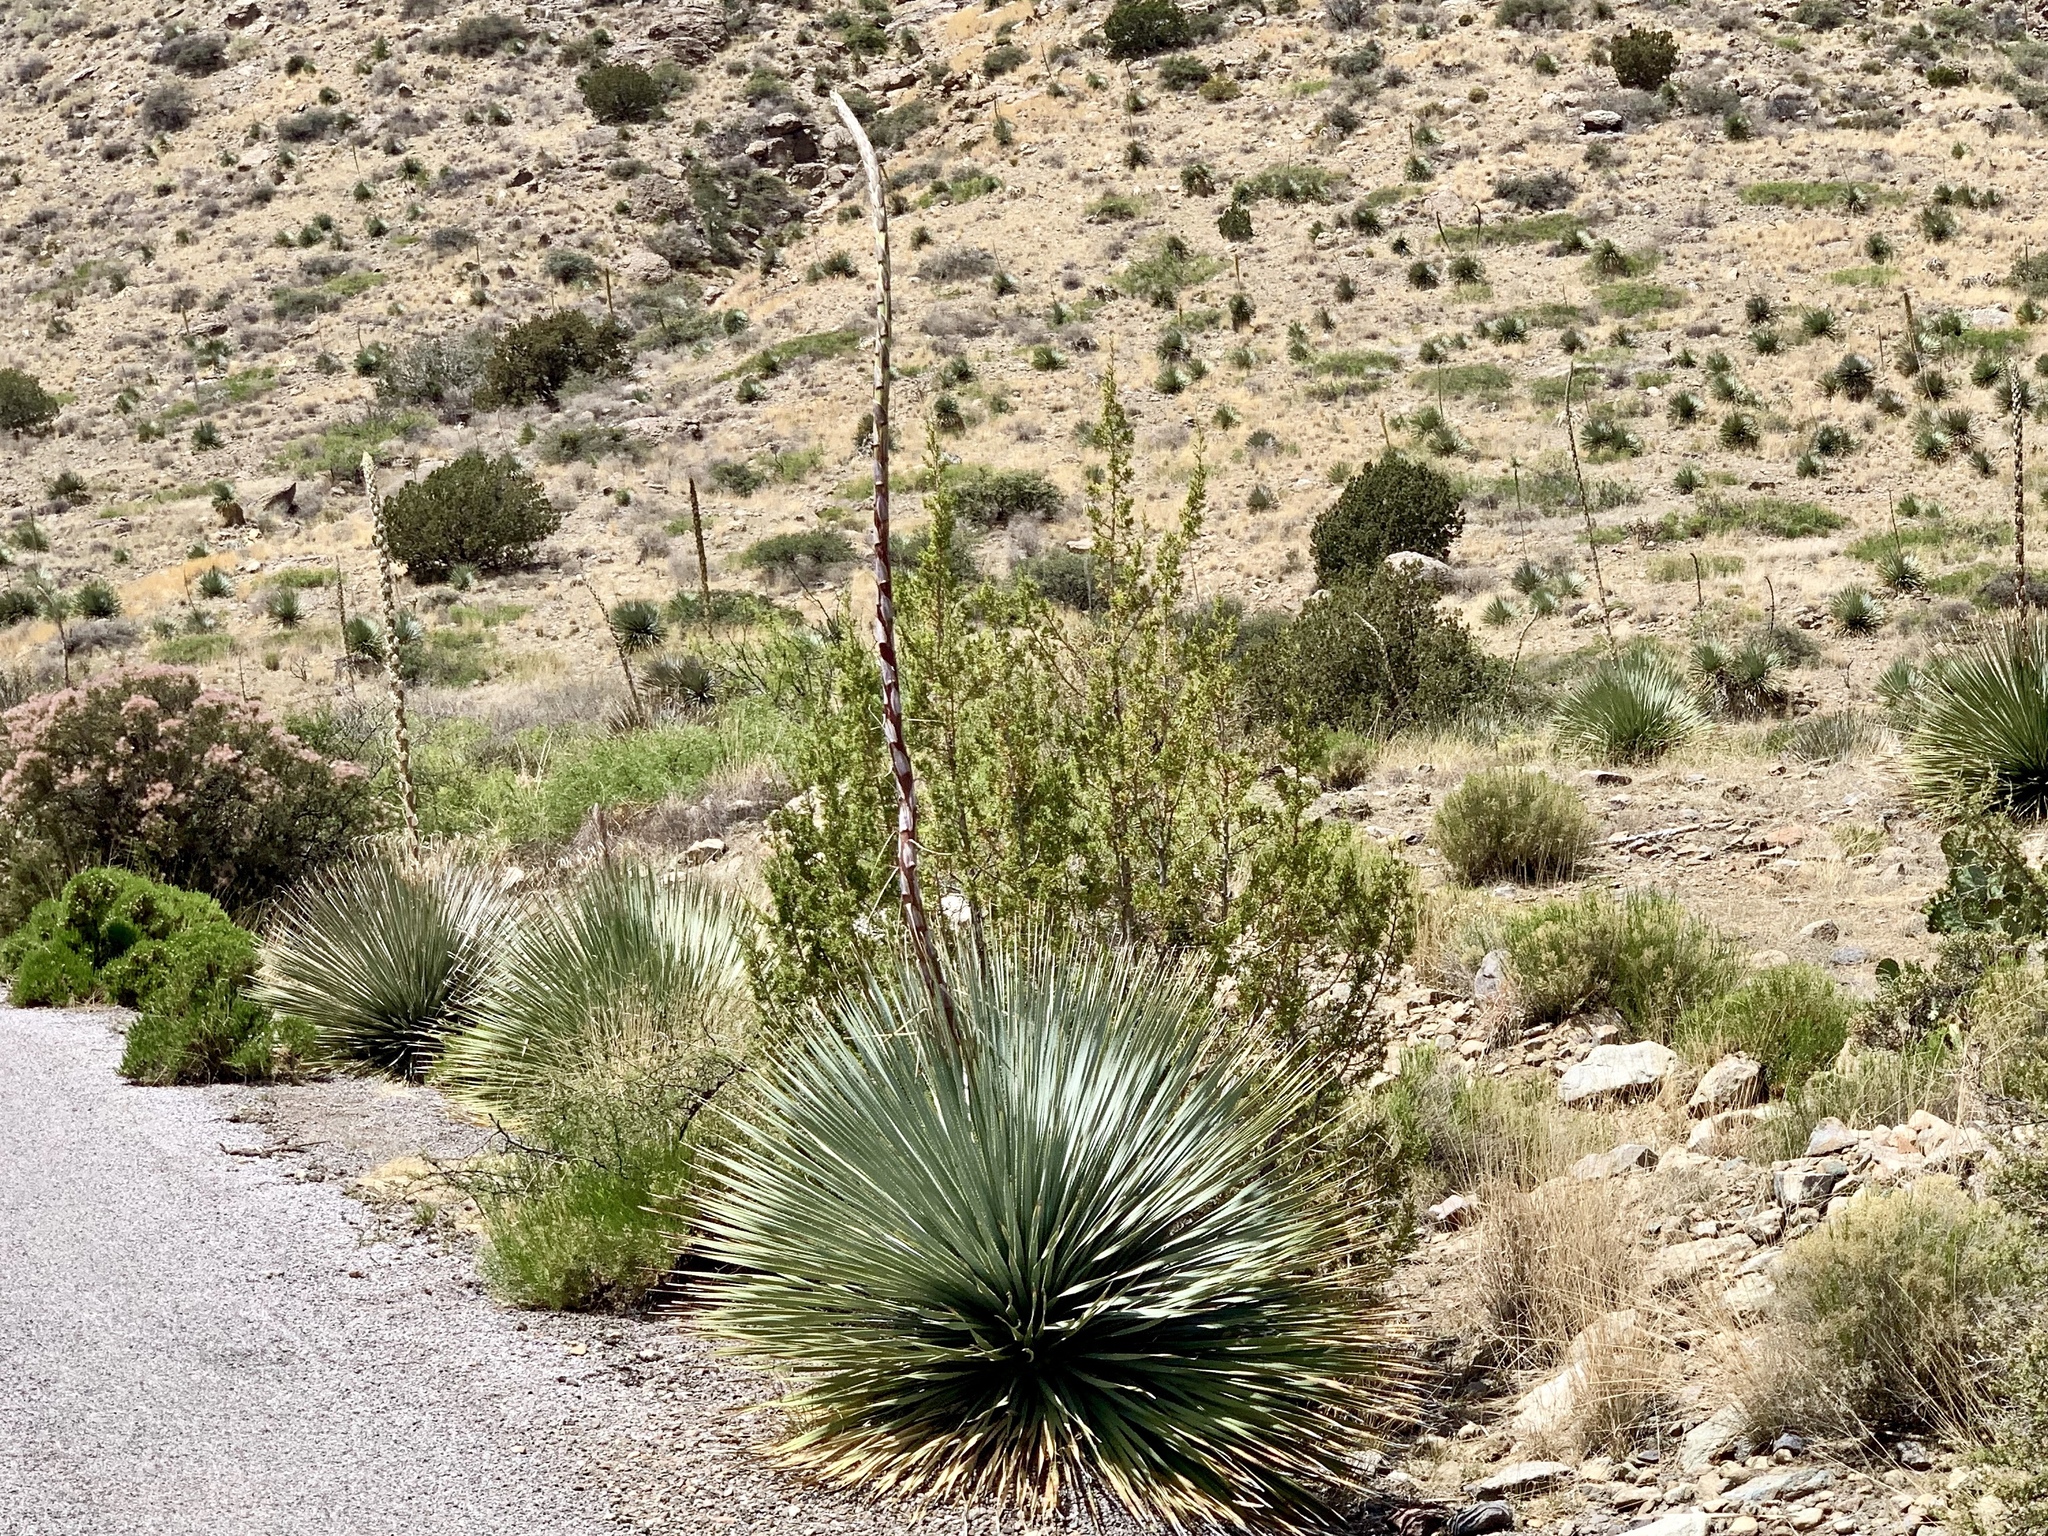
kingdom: Plantae
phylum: Tracheophyta
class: Liliopsida
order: Asparagales
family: Asparagaceae
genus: Dasylirion
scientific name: Dasylirion wheeleri
